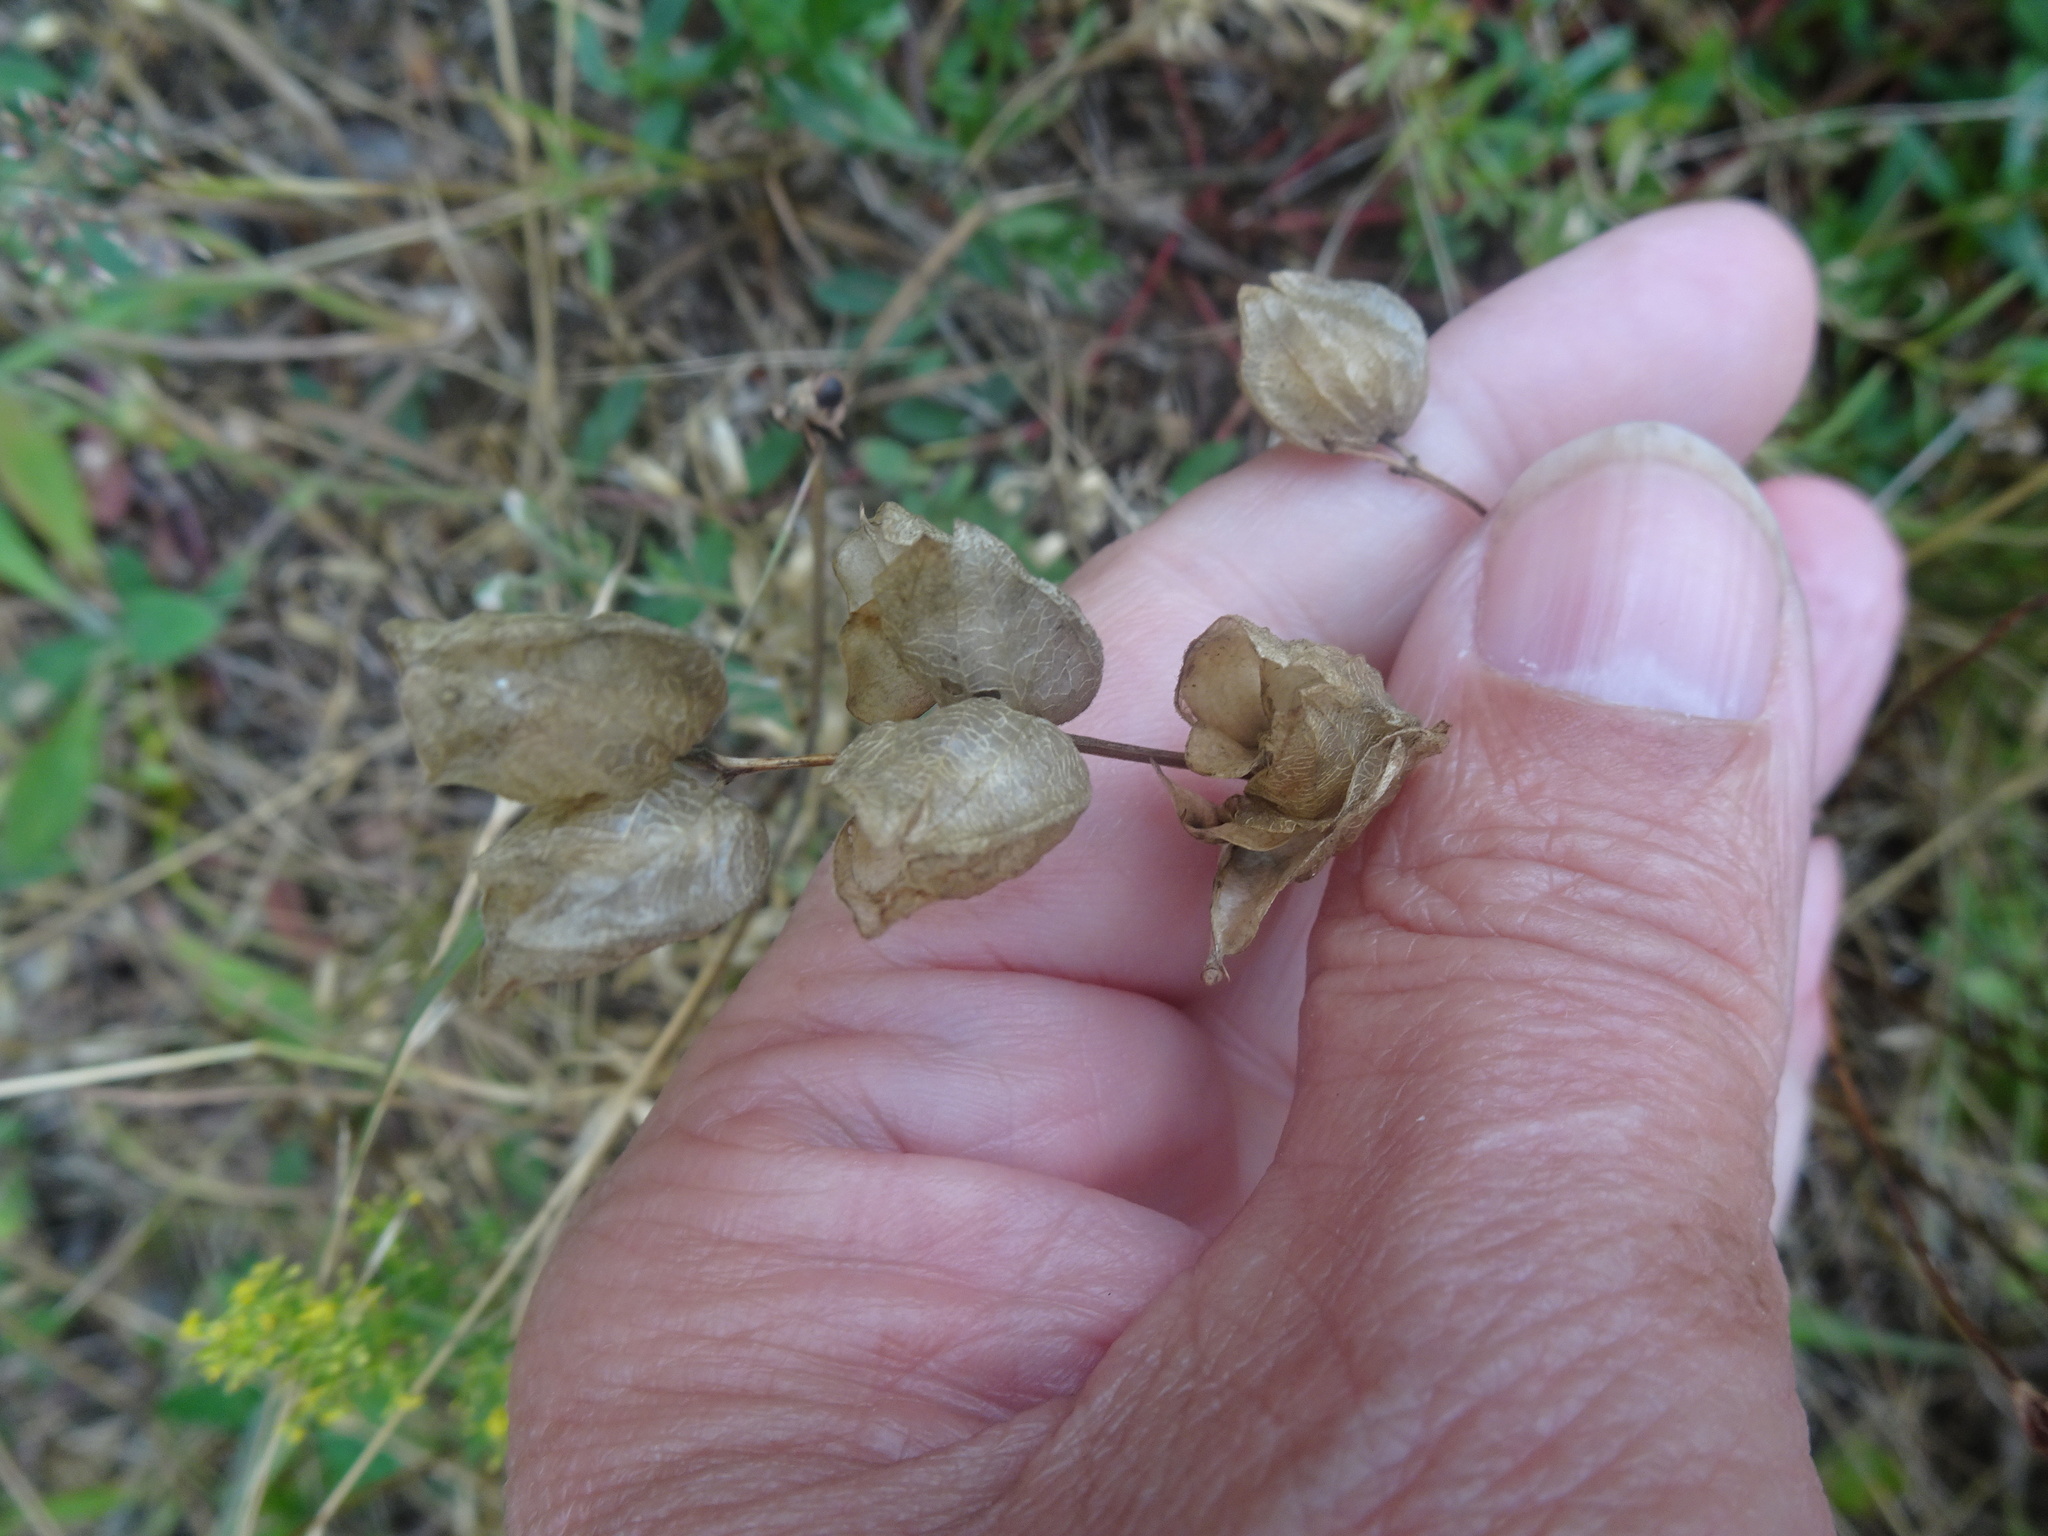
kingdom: Plantae
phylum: Tracheophyta
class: Magnoliopsida
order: Lamiales
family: Orobanchaceae
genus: Rhinanthus
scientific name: Rhinanthus minor
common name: Yellow-rattle
